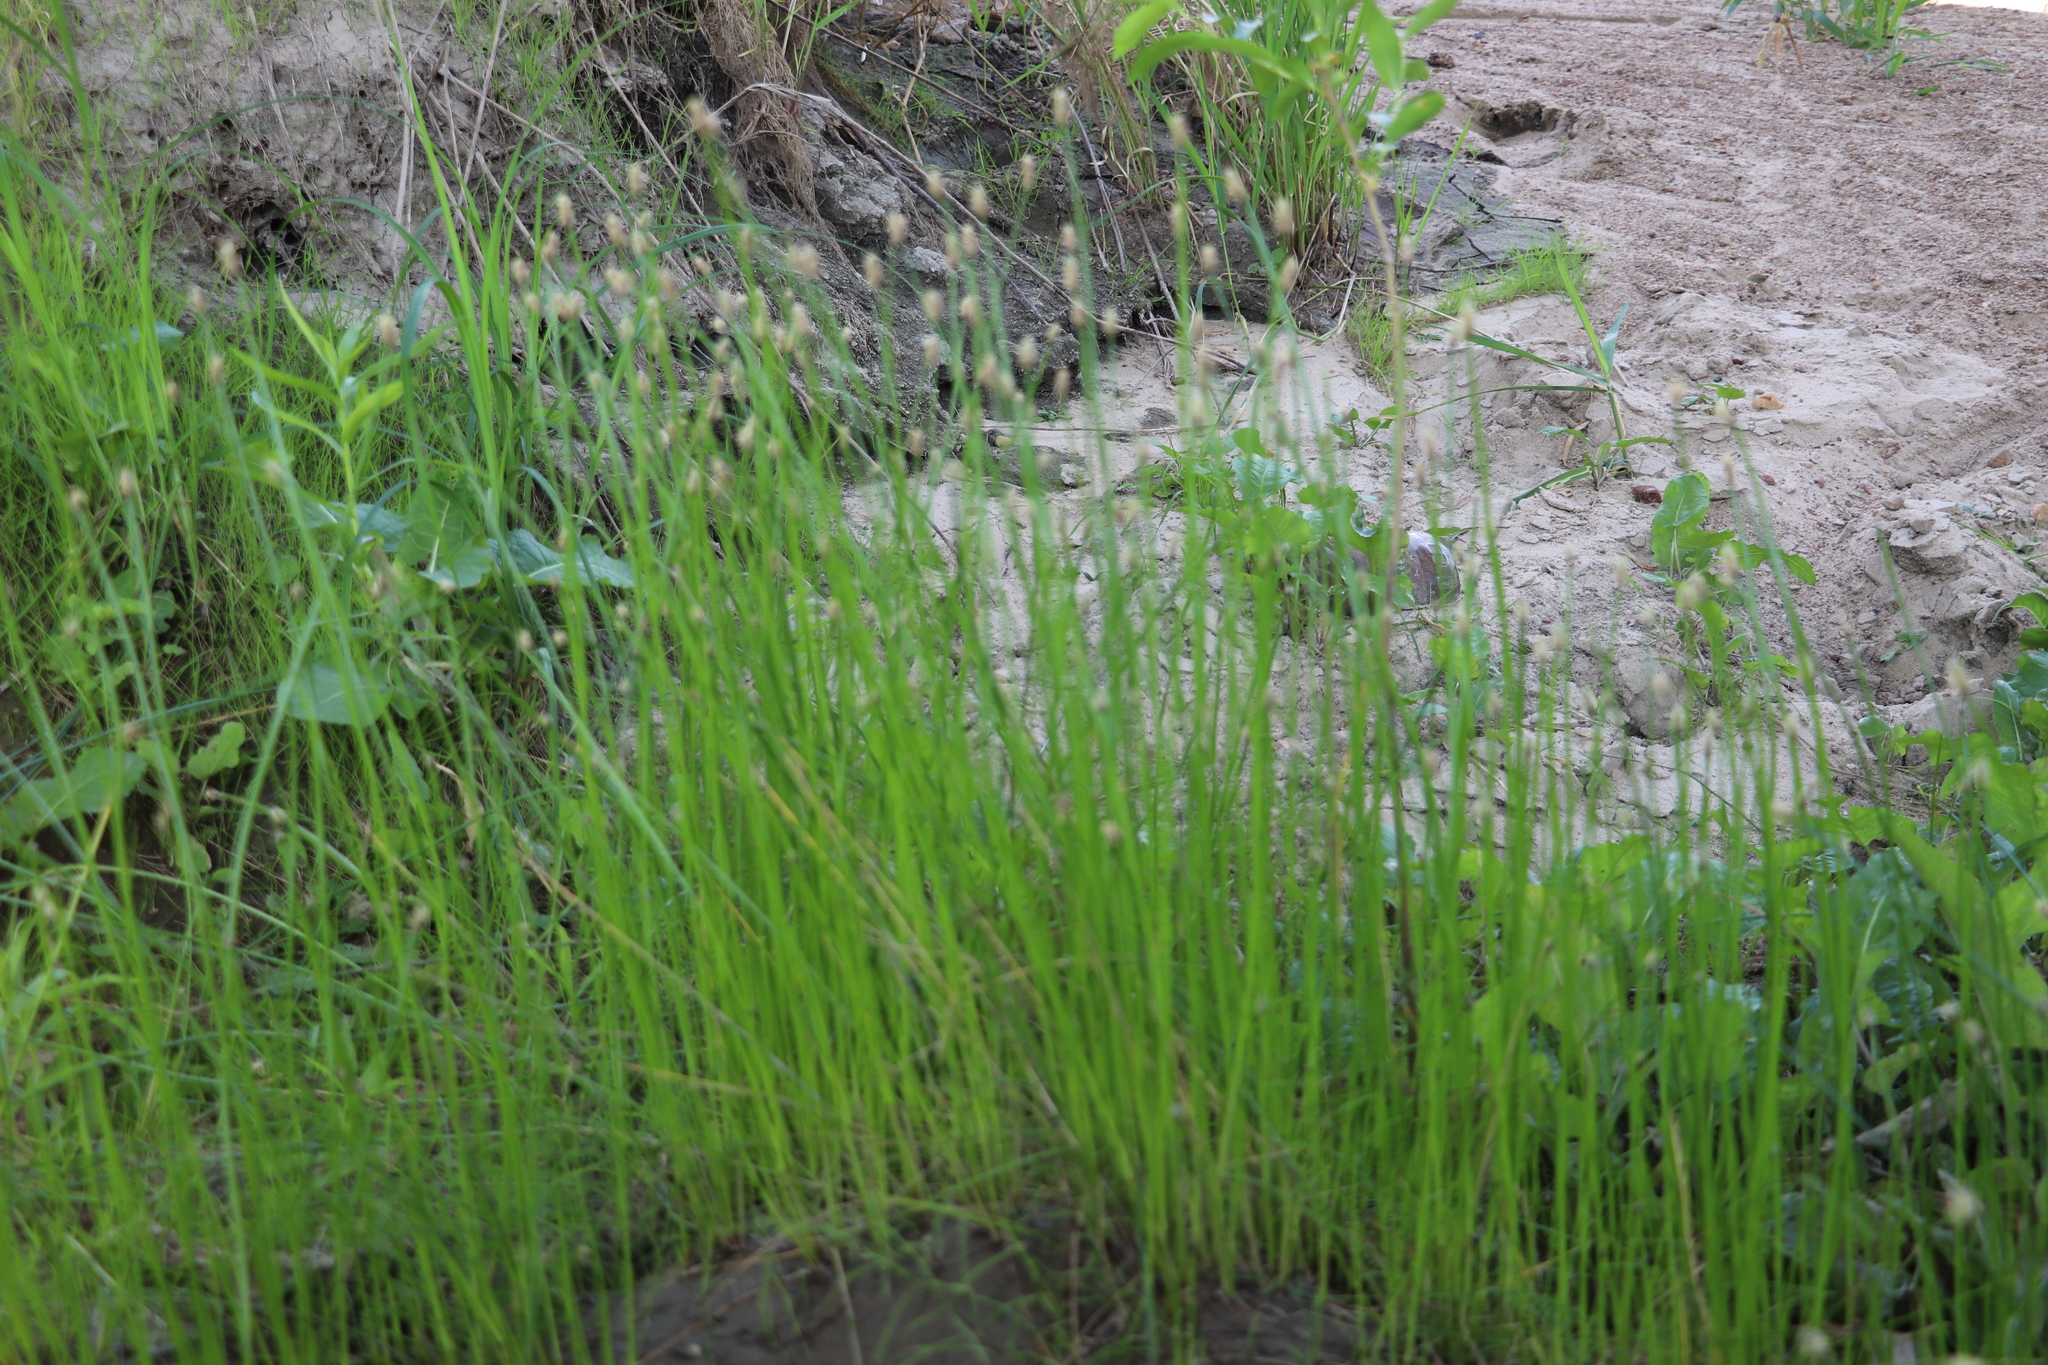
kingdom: Plantae
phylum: Tracheophyta
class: Liliopsida
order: Poales
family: Cyperaceae
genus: Eleocharis
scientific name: Eleocharis palustris
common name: Common spike-rush
